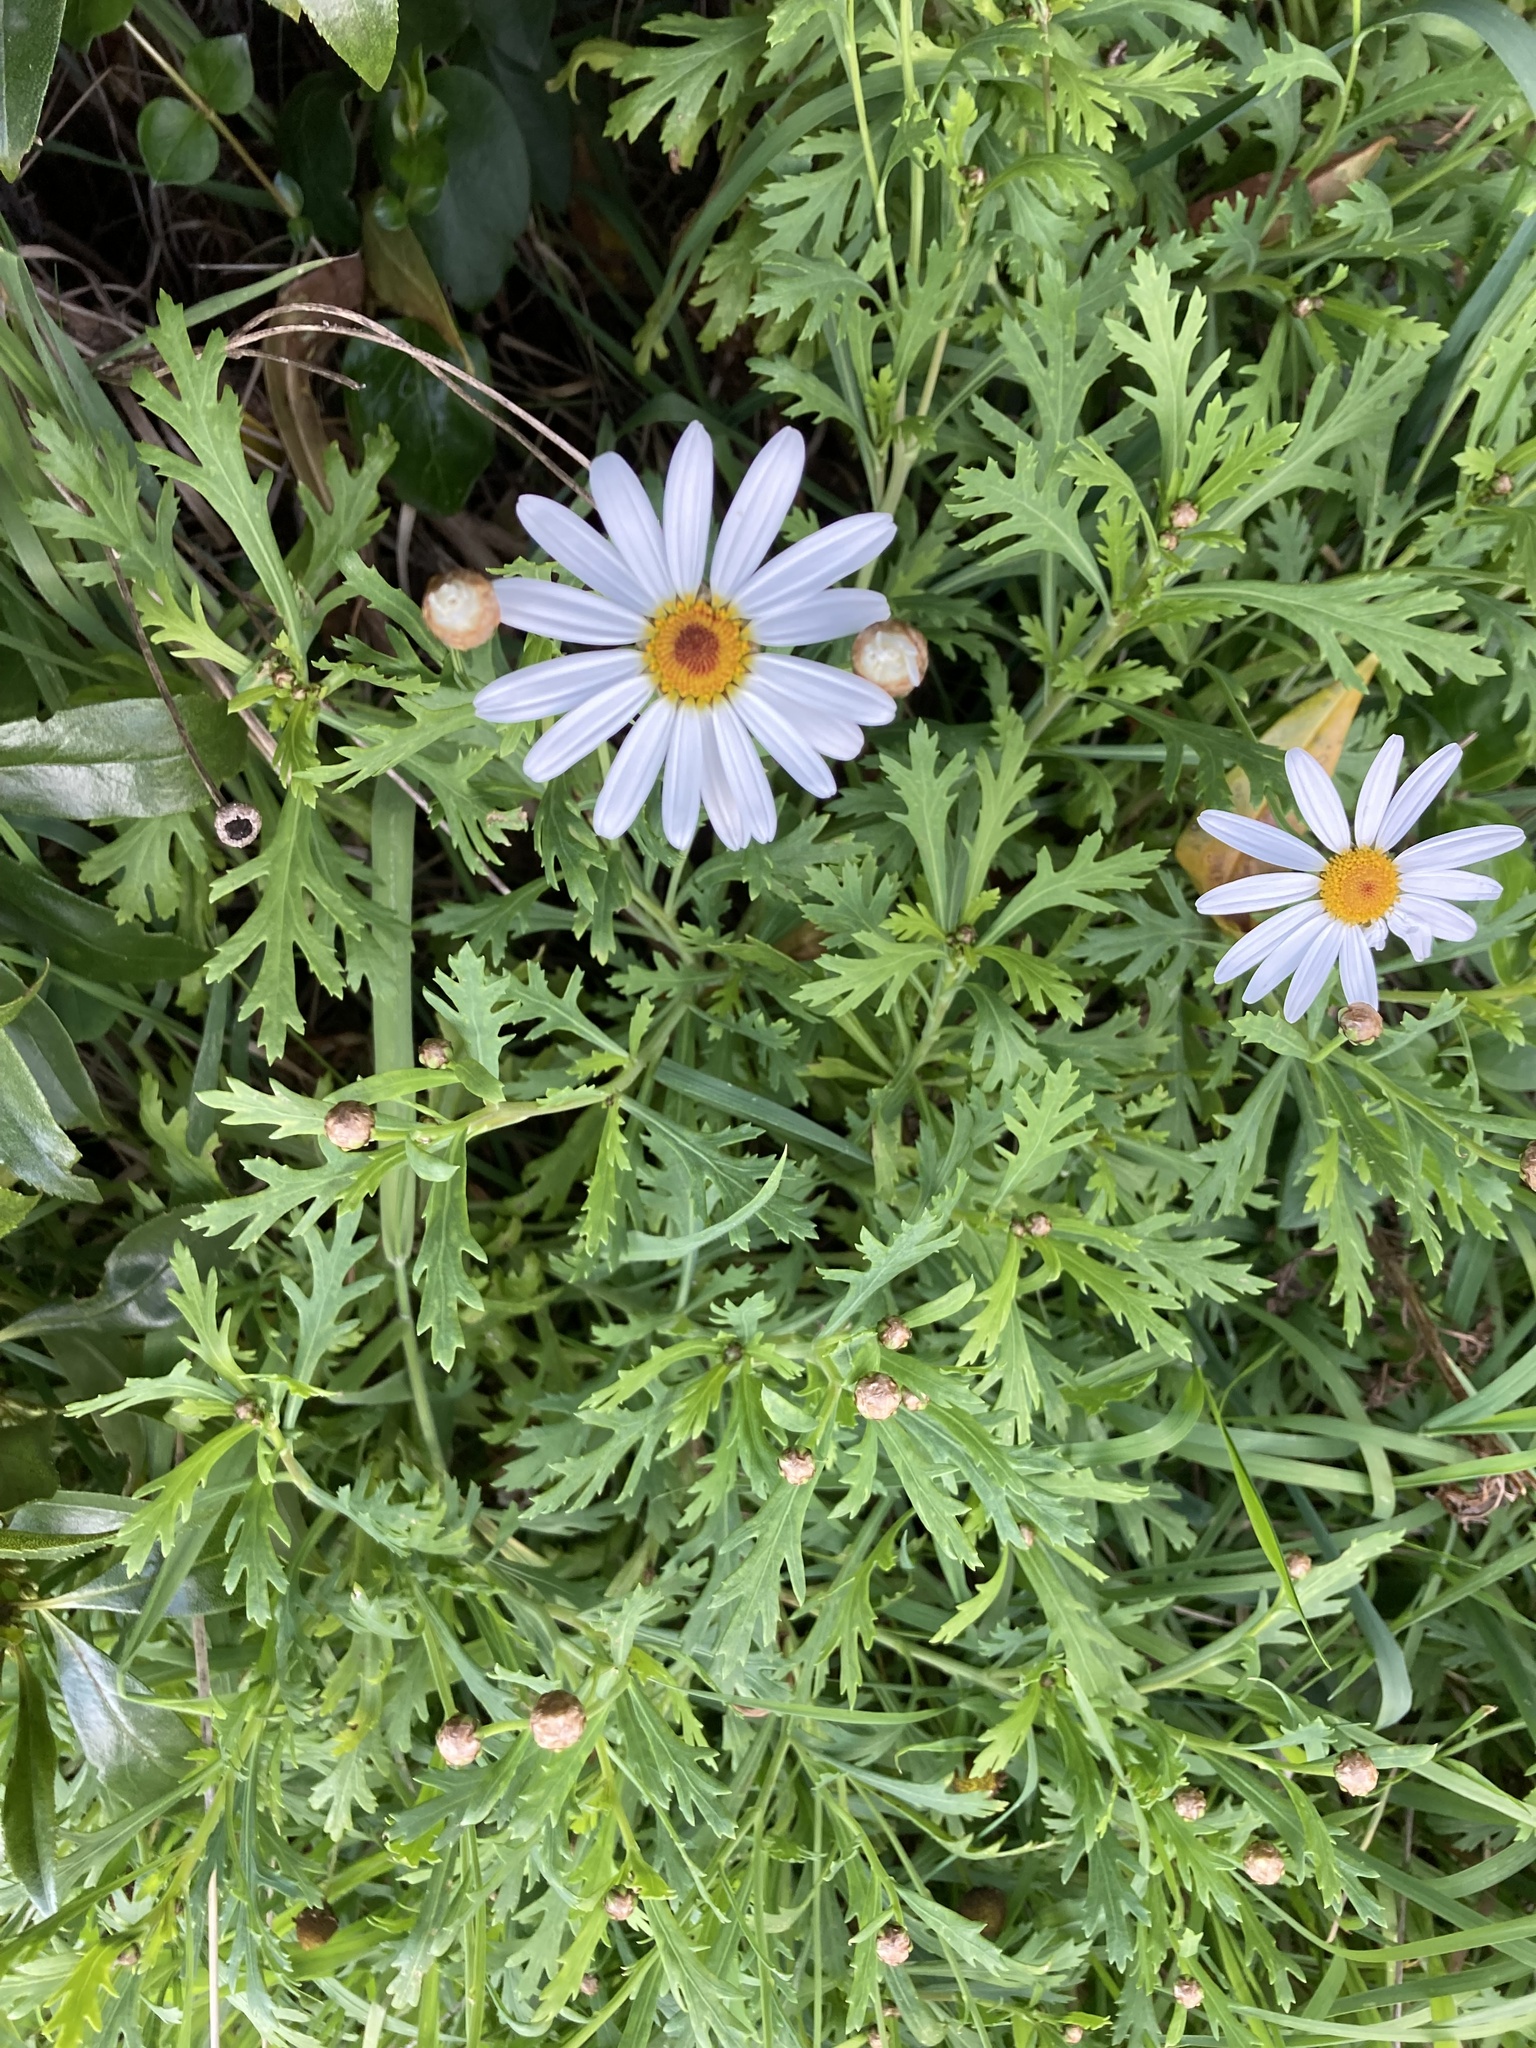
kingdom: Plantae
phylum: Tracheophyta
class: Magnoliopsida
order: Asterales
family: Asteraceae
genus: Argyranthemum
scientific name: Argyranthemum frutescens
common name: Paris daisy
